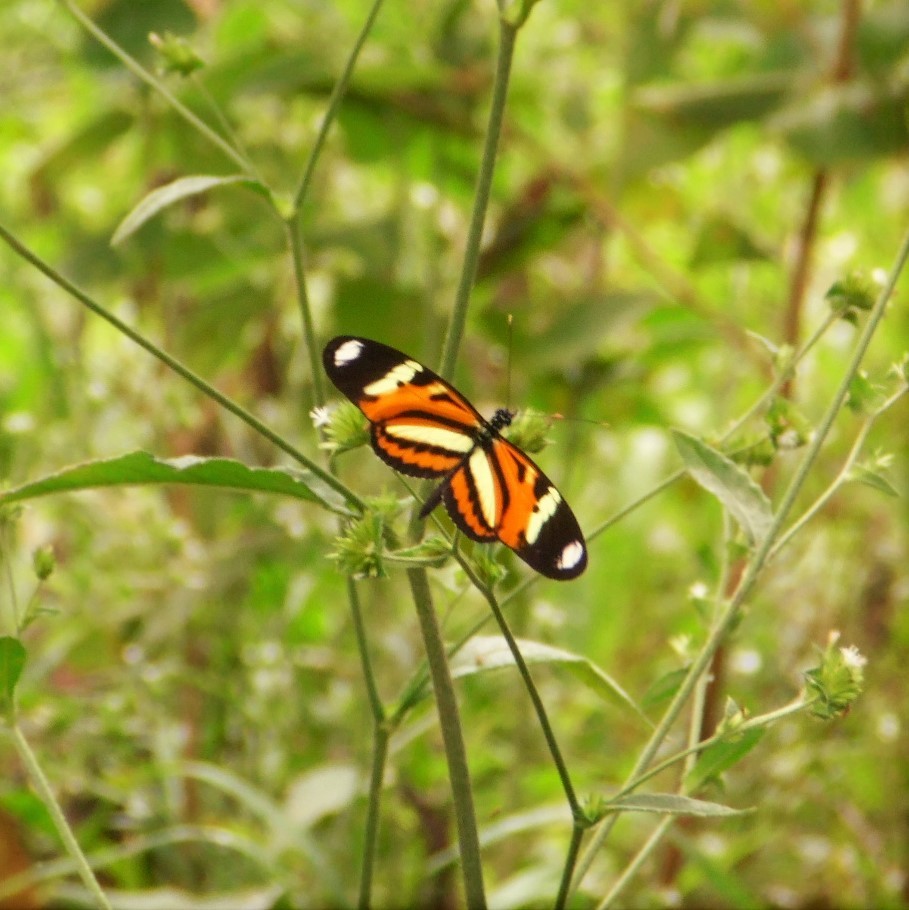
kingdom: Animalia
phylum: Arthropoda
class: Insecta
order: Lepidoptera
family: Nymphalidae
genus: Heliconius
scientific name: Heliconius ethilla
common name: Ethilia longwing
